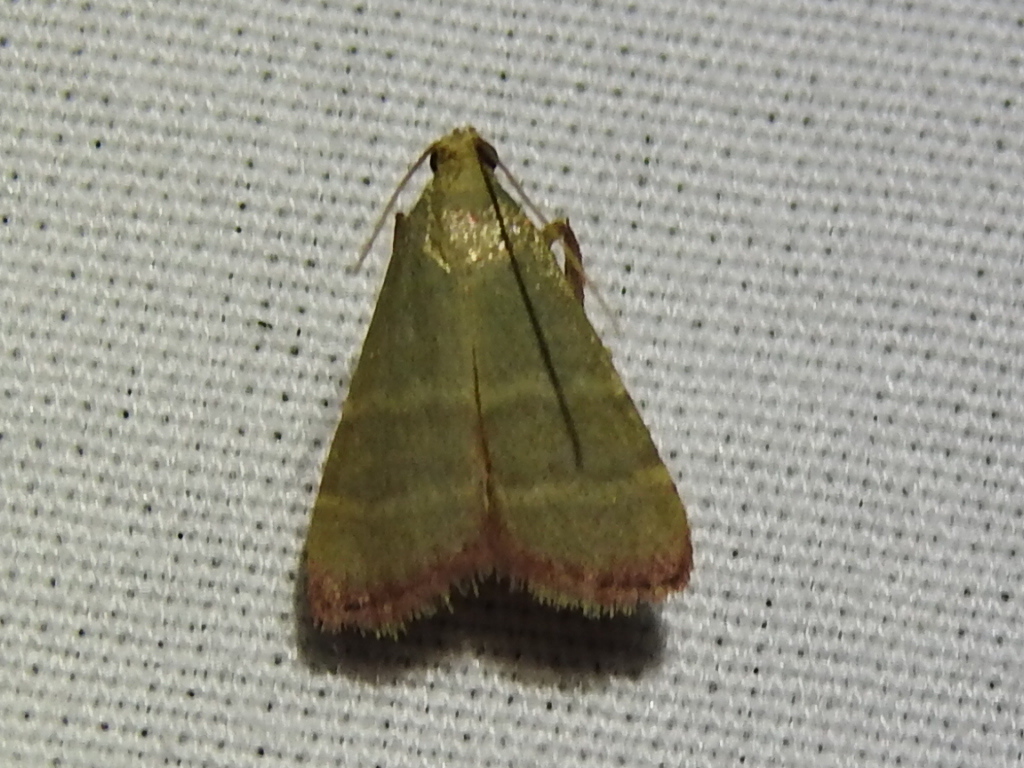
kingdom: Animalia
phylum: Arthropoda
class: Insecta
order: Lepidoptera
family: Pyralidae
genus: Arta
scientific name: Arta olivalis
